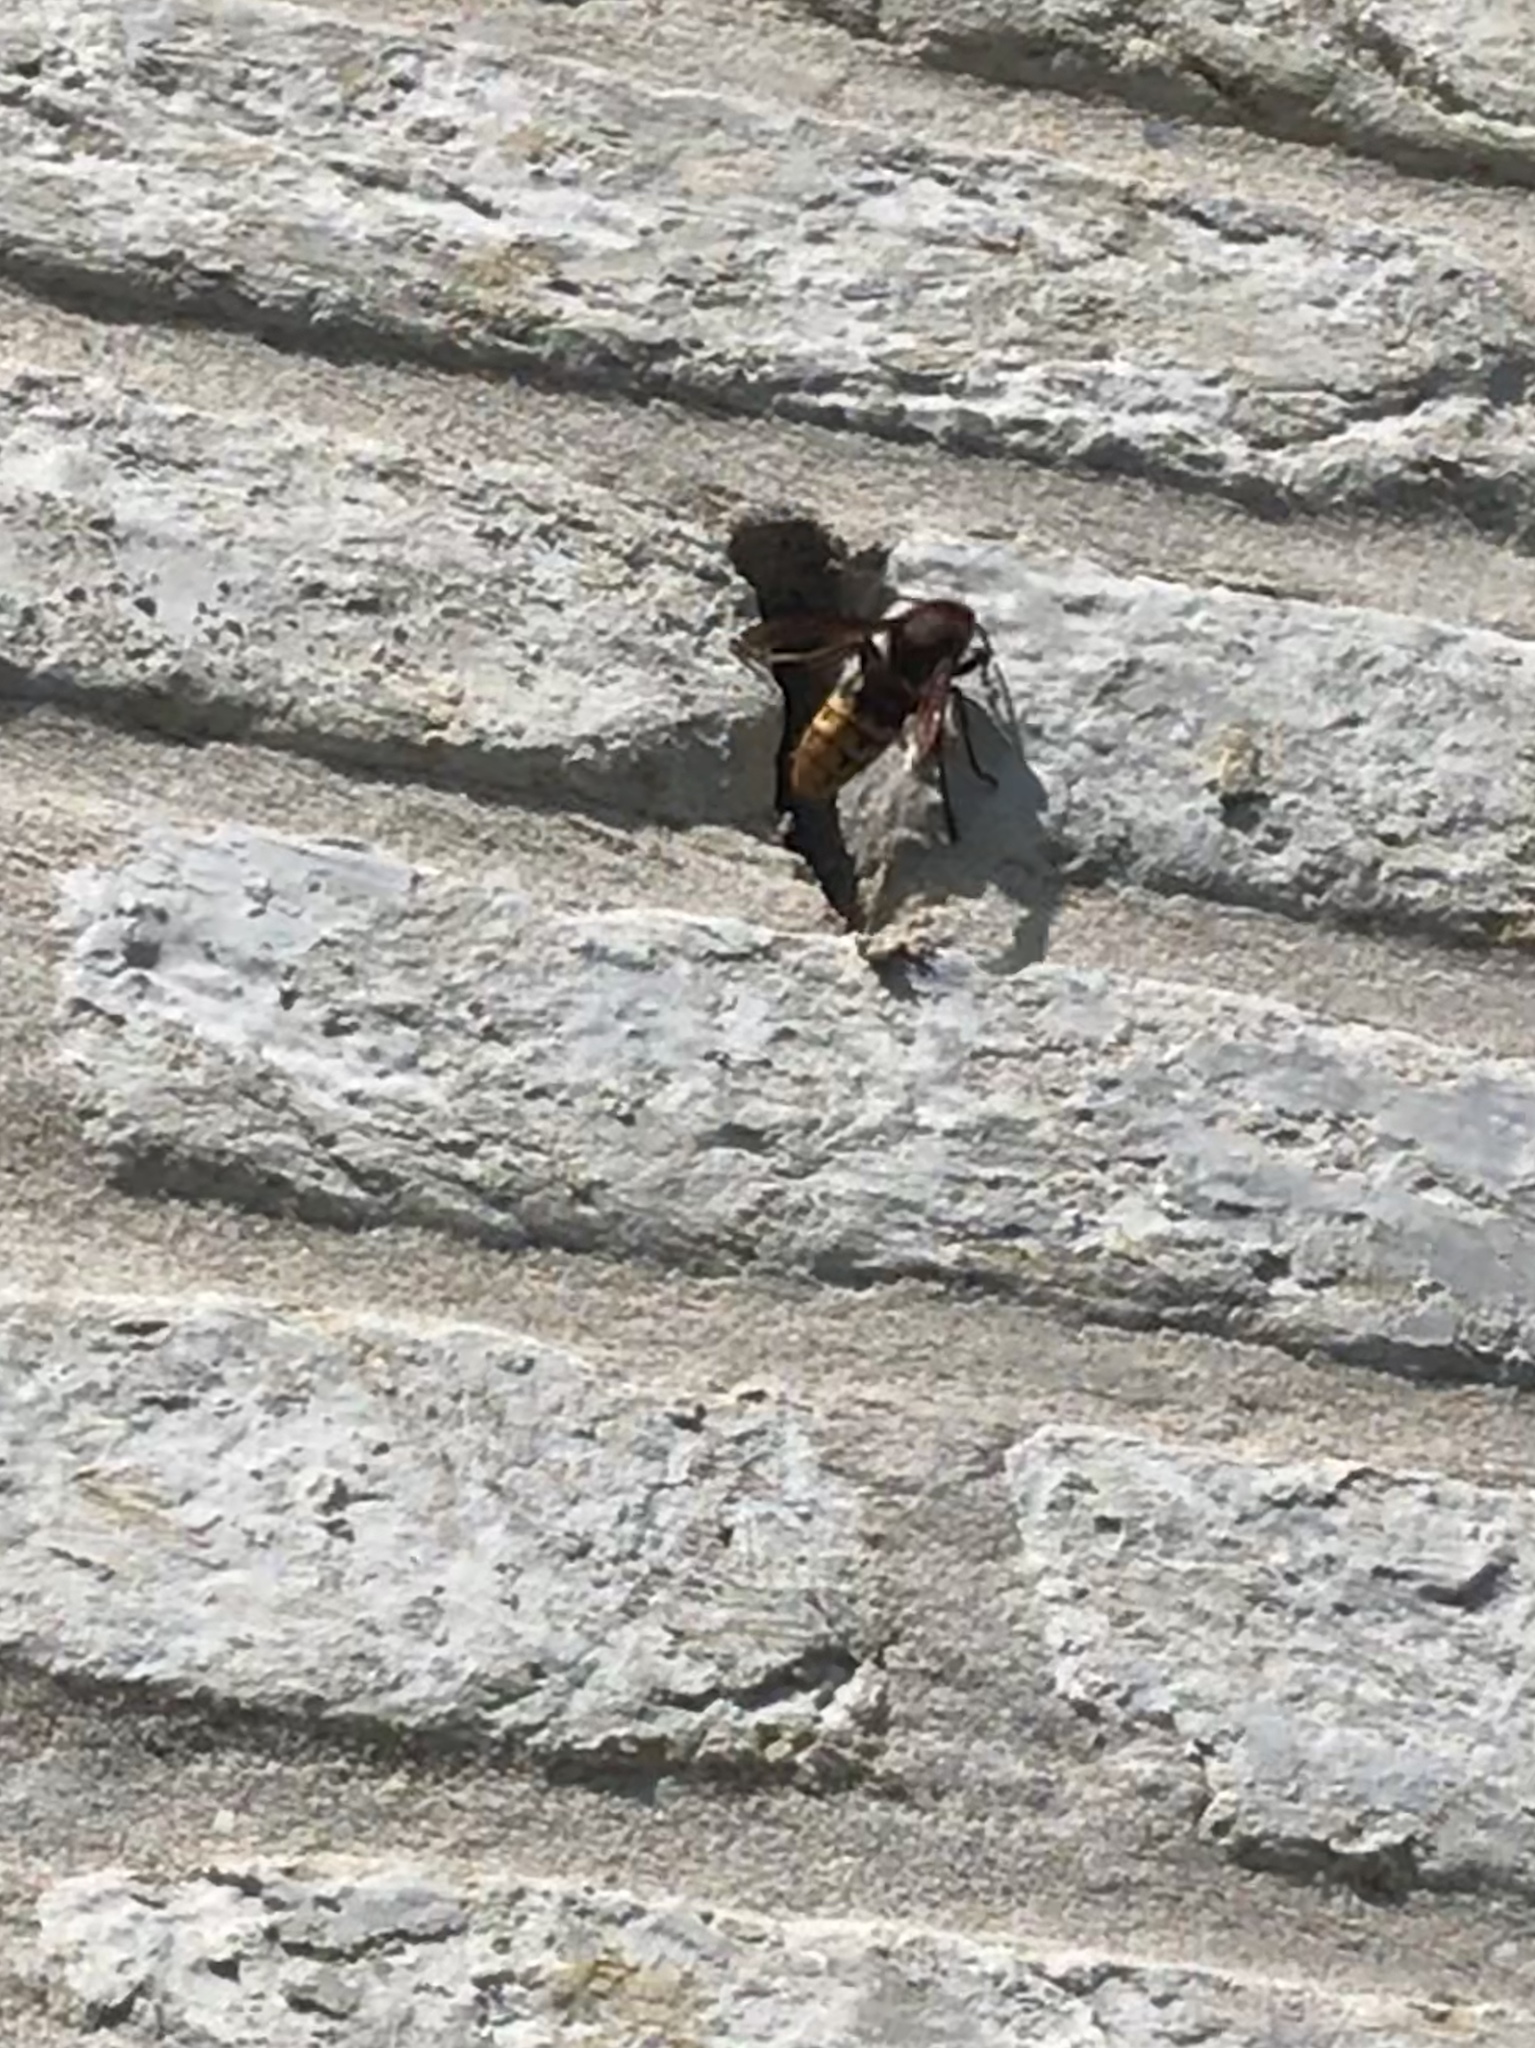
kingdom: Animalia
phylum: Arthropoda
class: Insecta
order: Hymenoptera
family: Vespidae
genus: Vespa
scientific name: Vespa crabro
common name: Hornet
